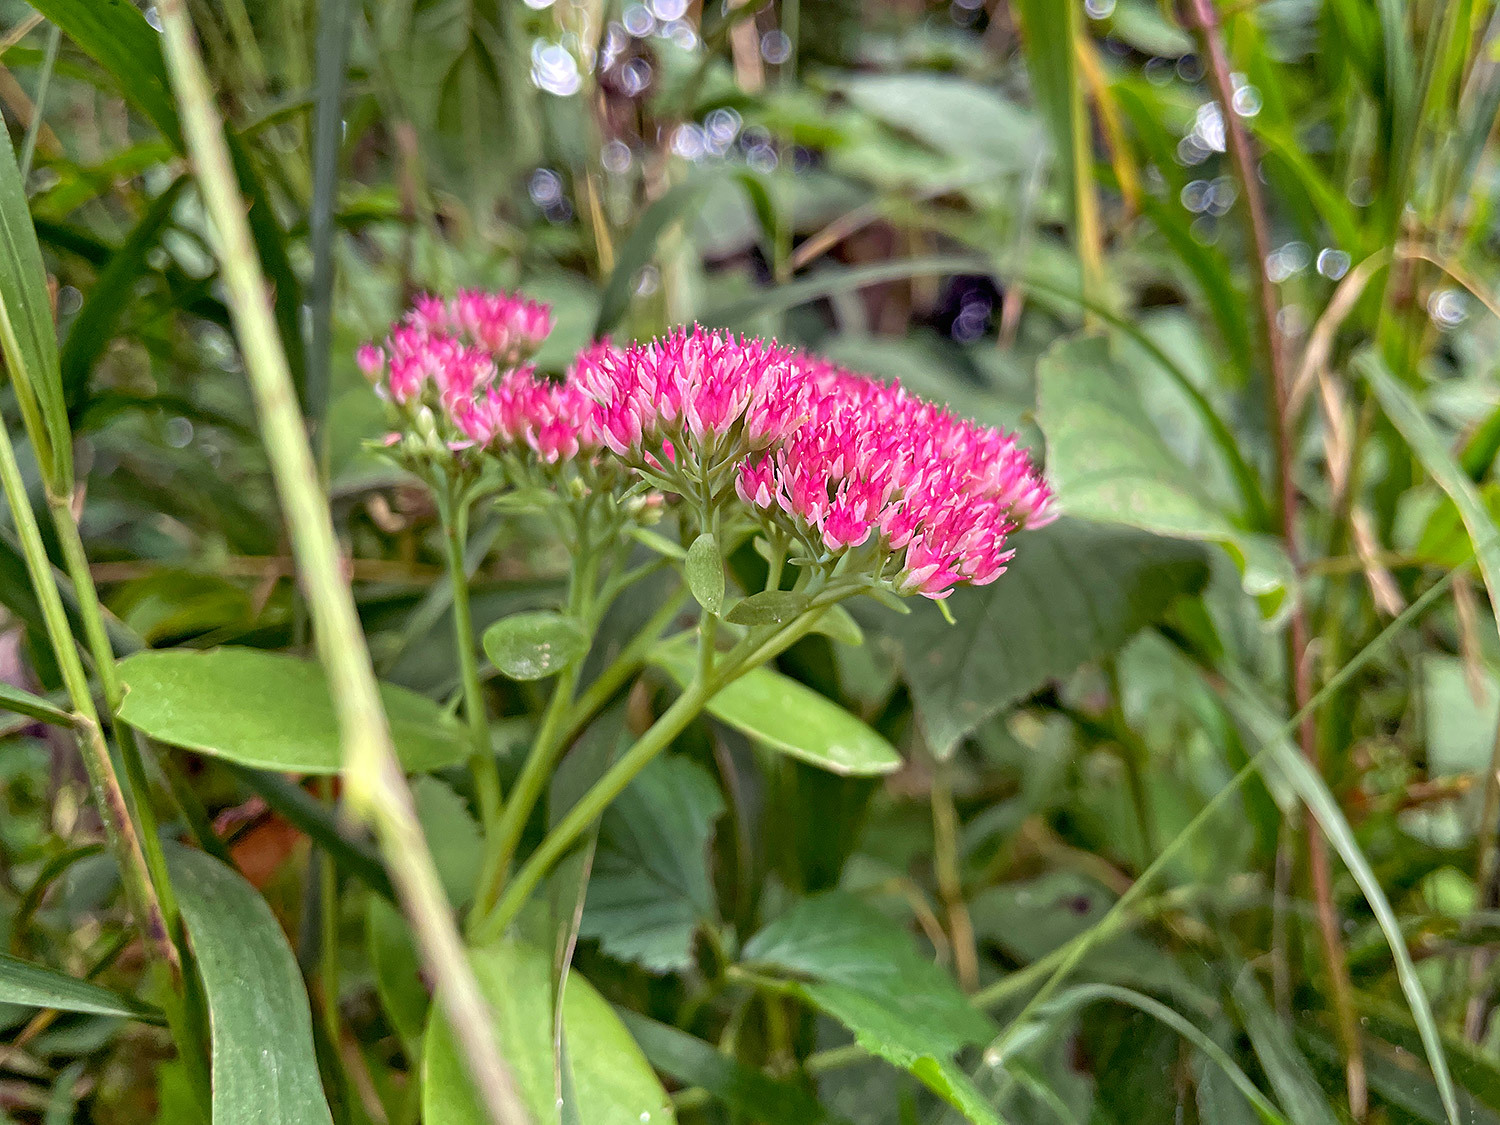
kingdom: Plantae
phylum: Tracheophyta
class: Magnoliopsida
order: Saxifragales
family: Crassulaceae
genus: Hylotelephium
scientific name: Hylotelephium
